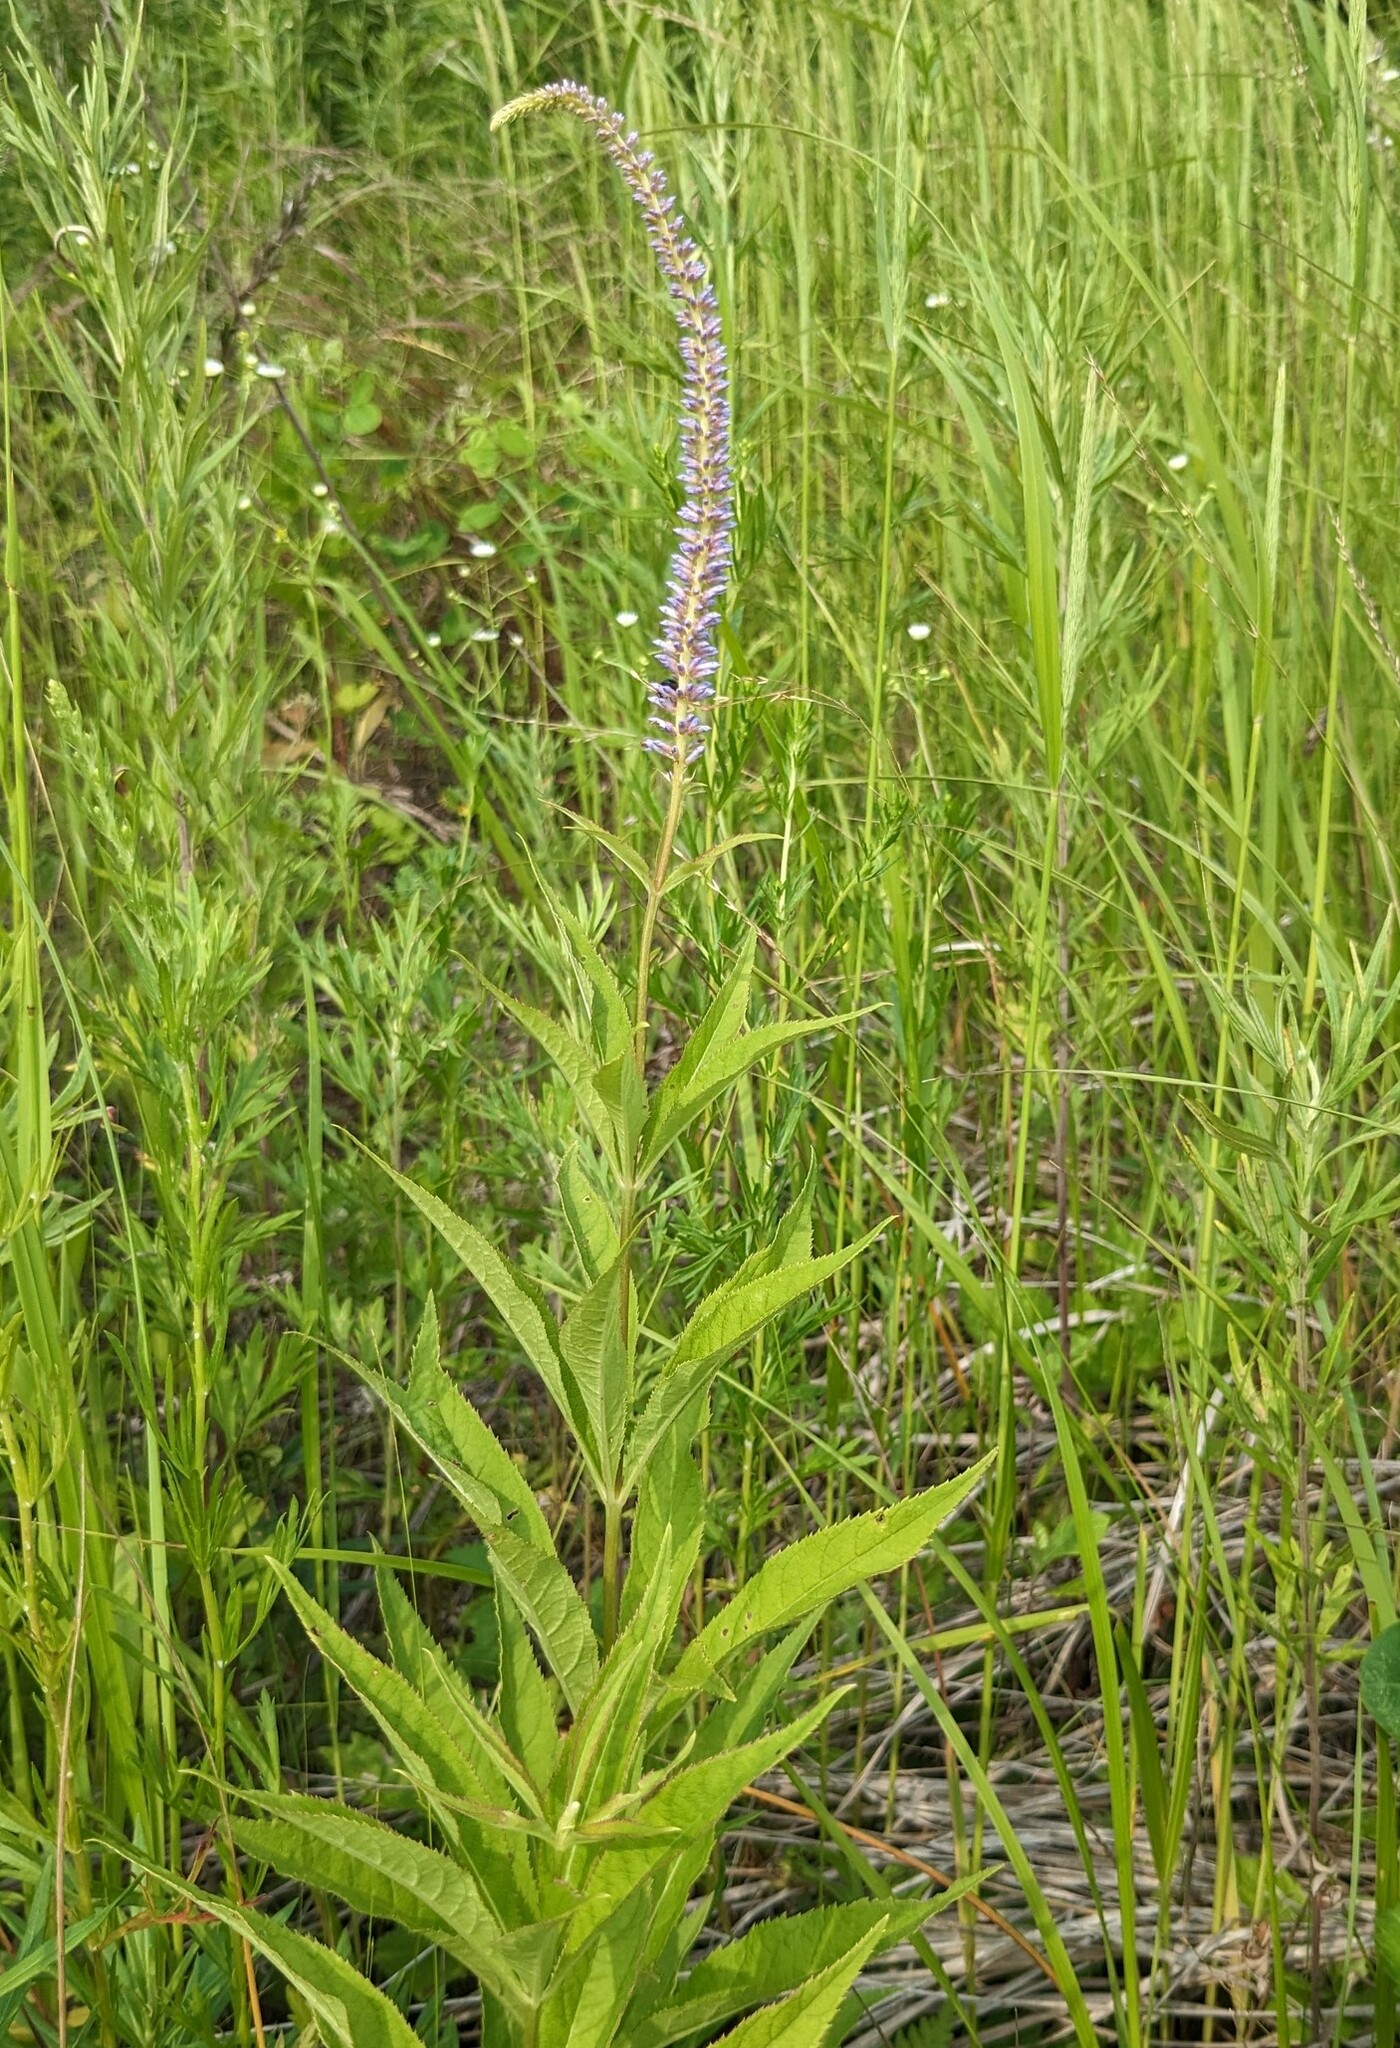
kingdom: Plantae
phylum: Tracheophyta
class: Magnoliopsida
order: Lamiales
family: Plantaginaceae
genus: Veronicastrum
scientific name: Veronicastrum sibiricum
